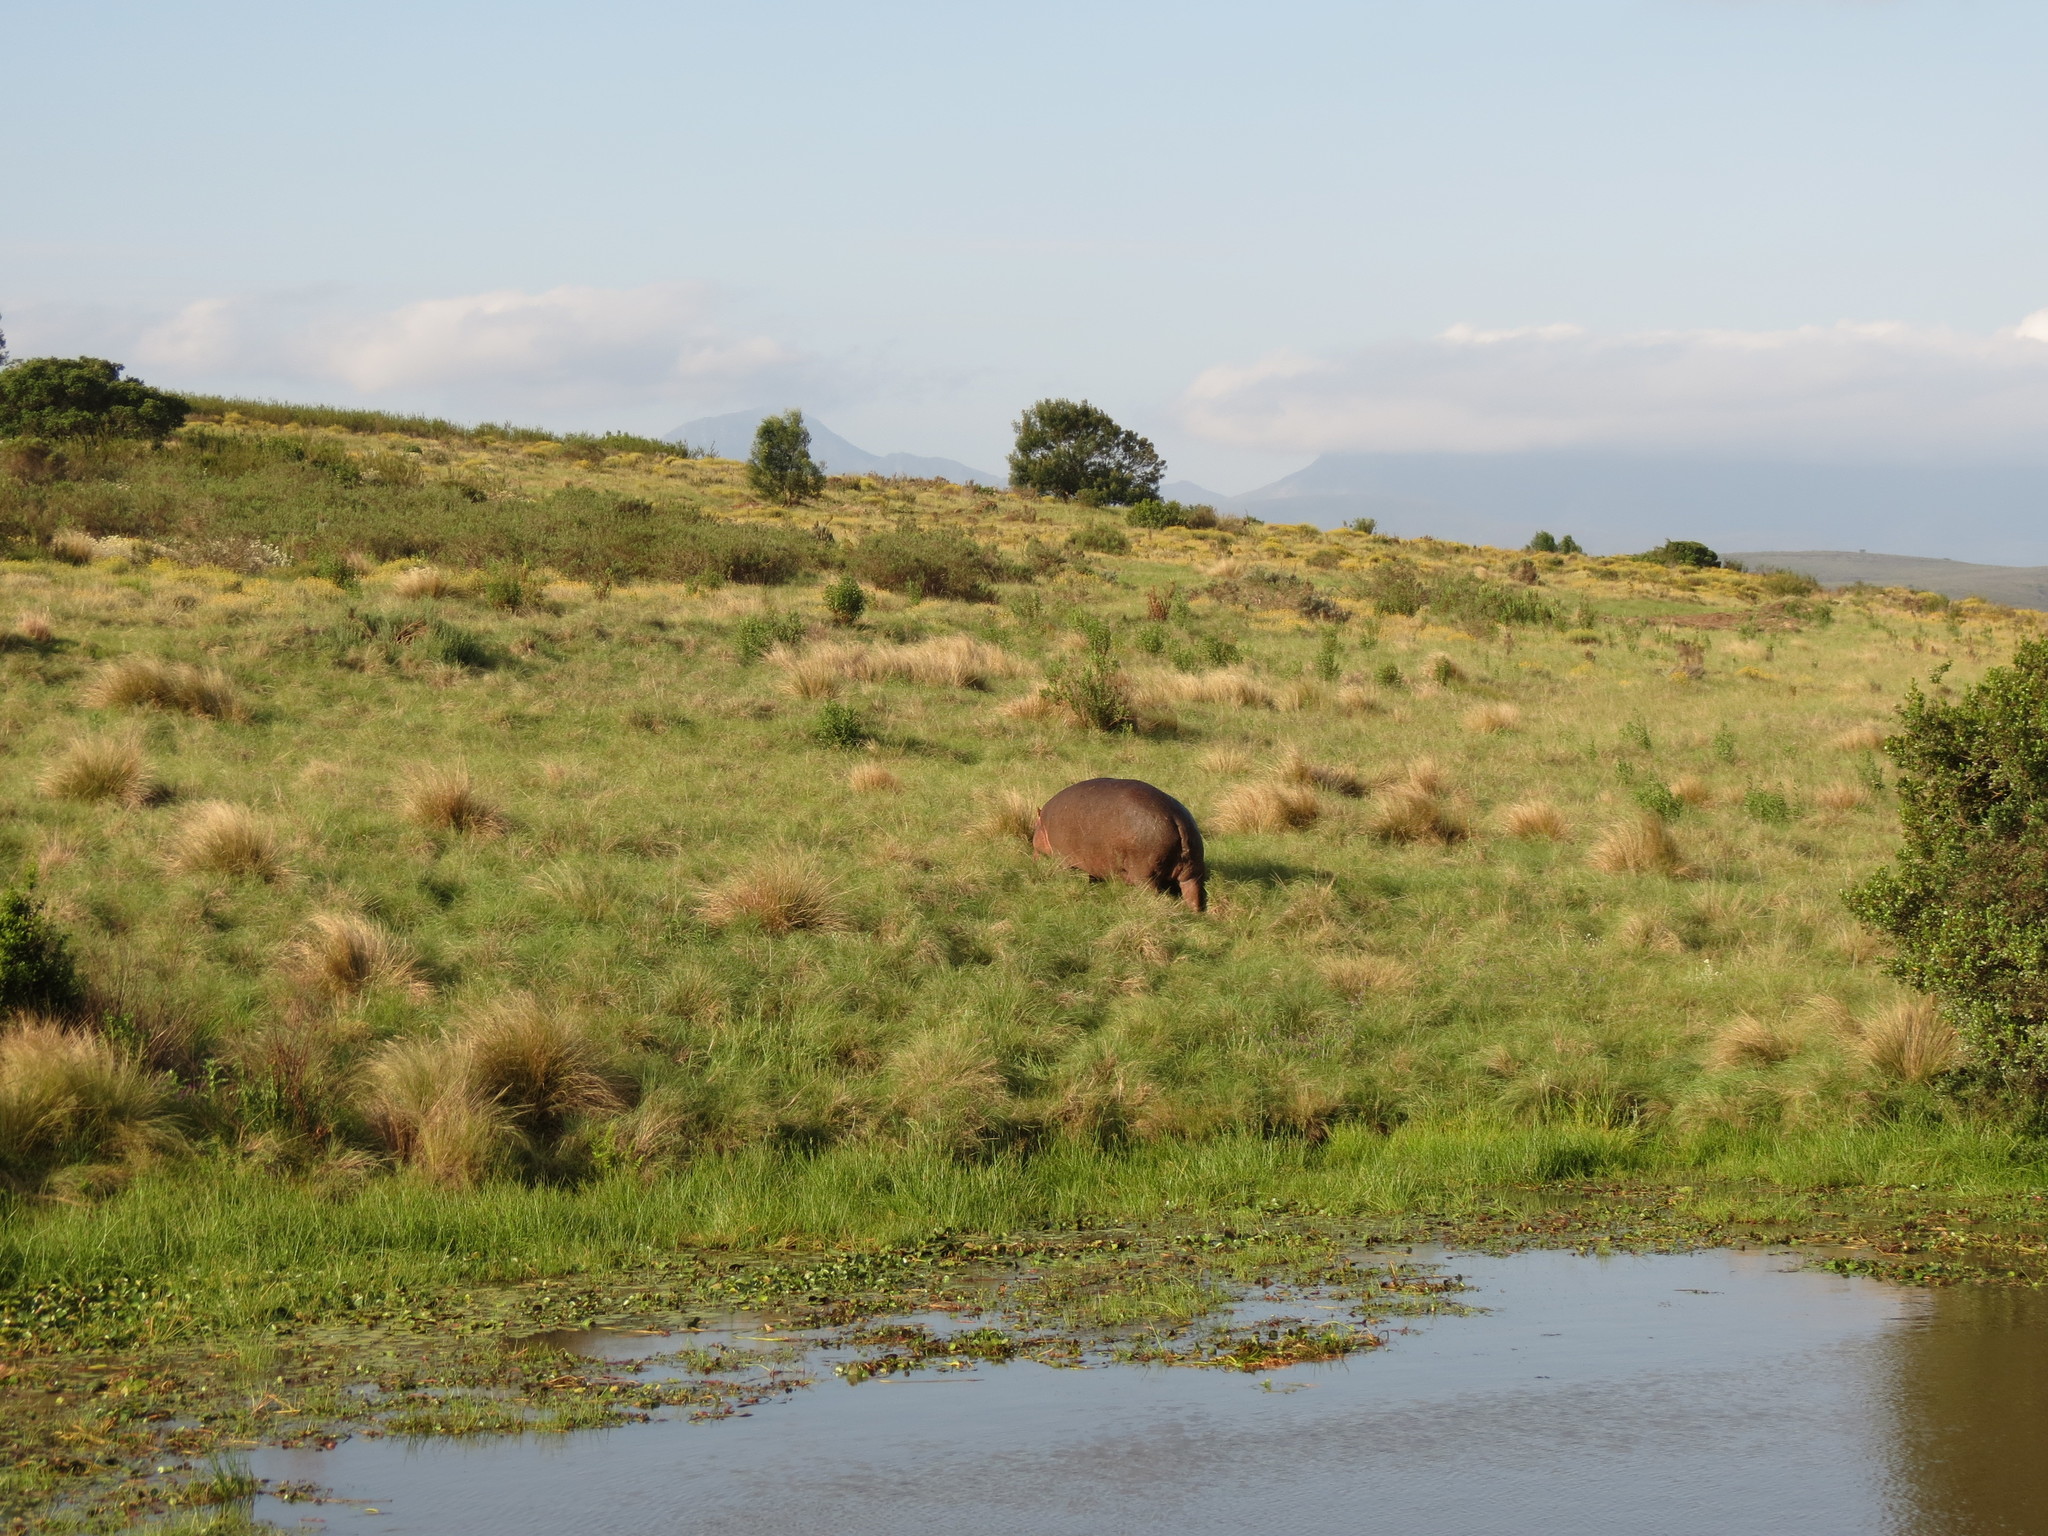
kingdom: Animalia
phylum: Chordata
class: Mammalia
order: Artiodactyla
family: Hippopotamidae
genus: Hippopotamus
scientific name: Hippopotamus amphibius
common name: Common hippopotamus
